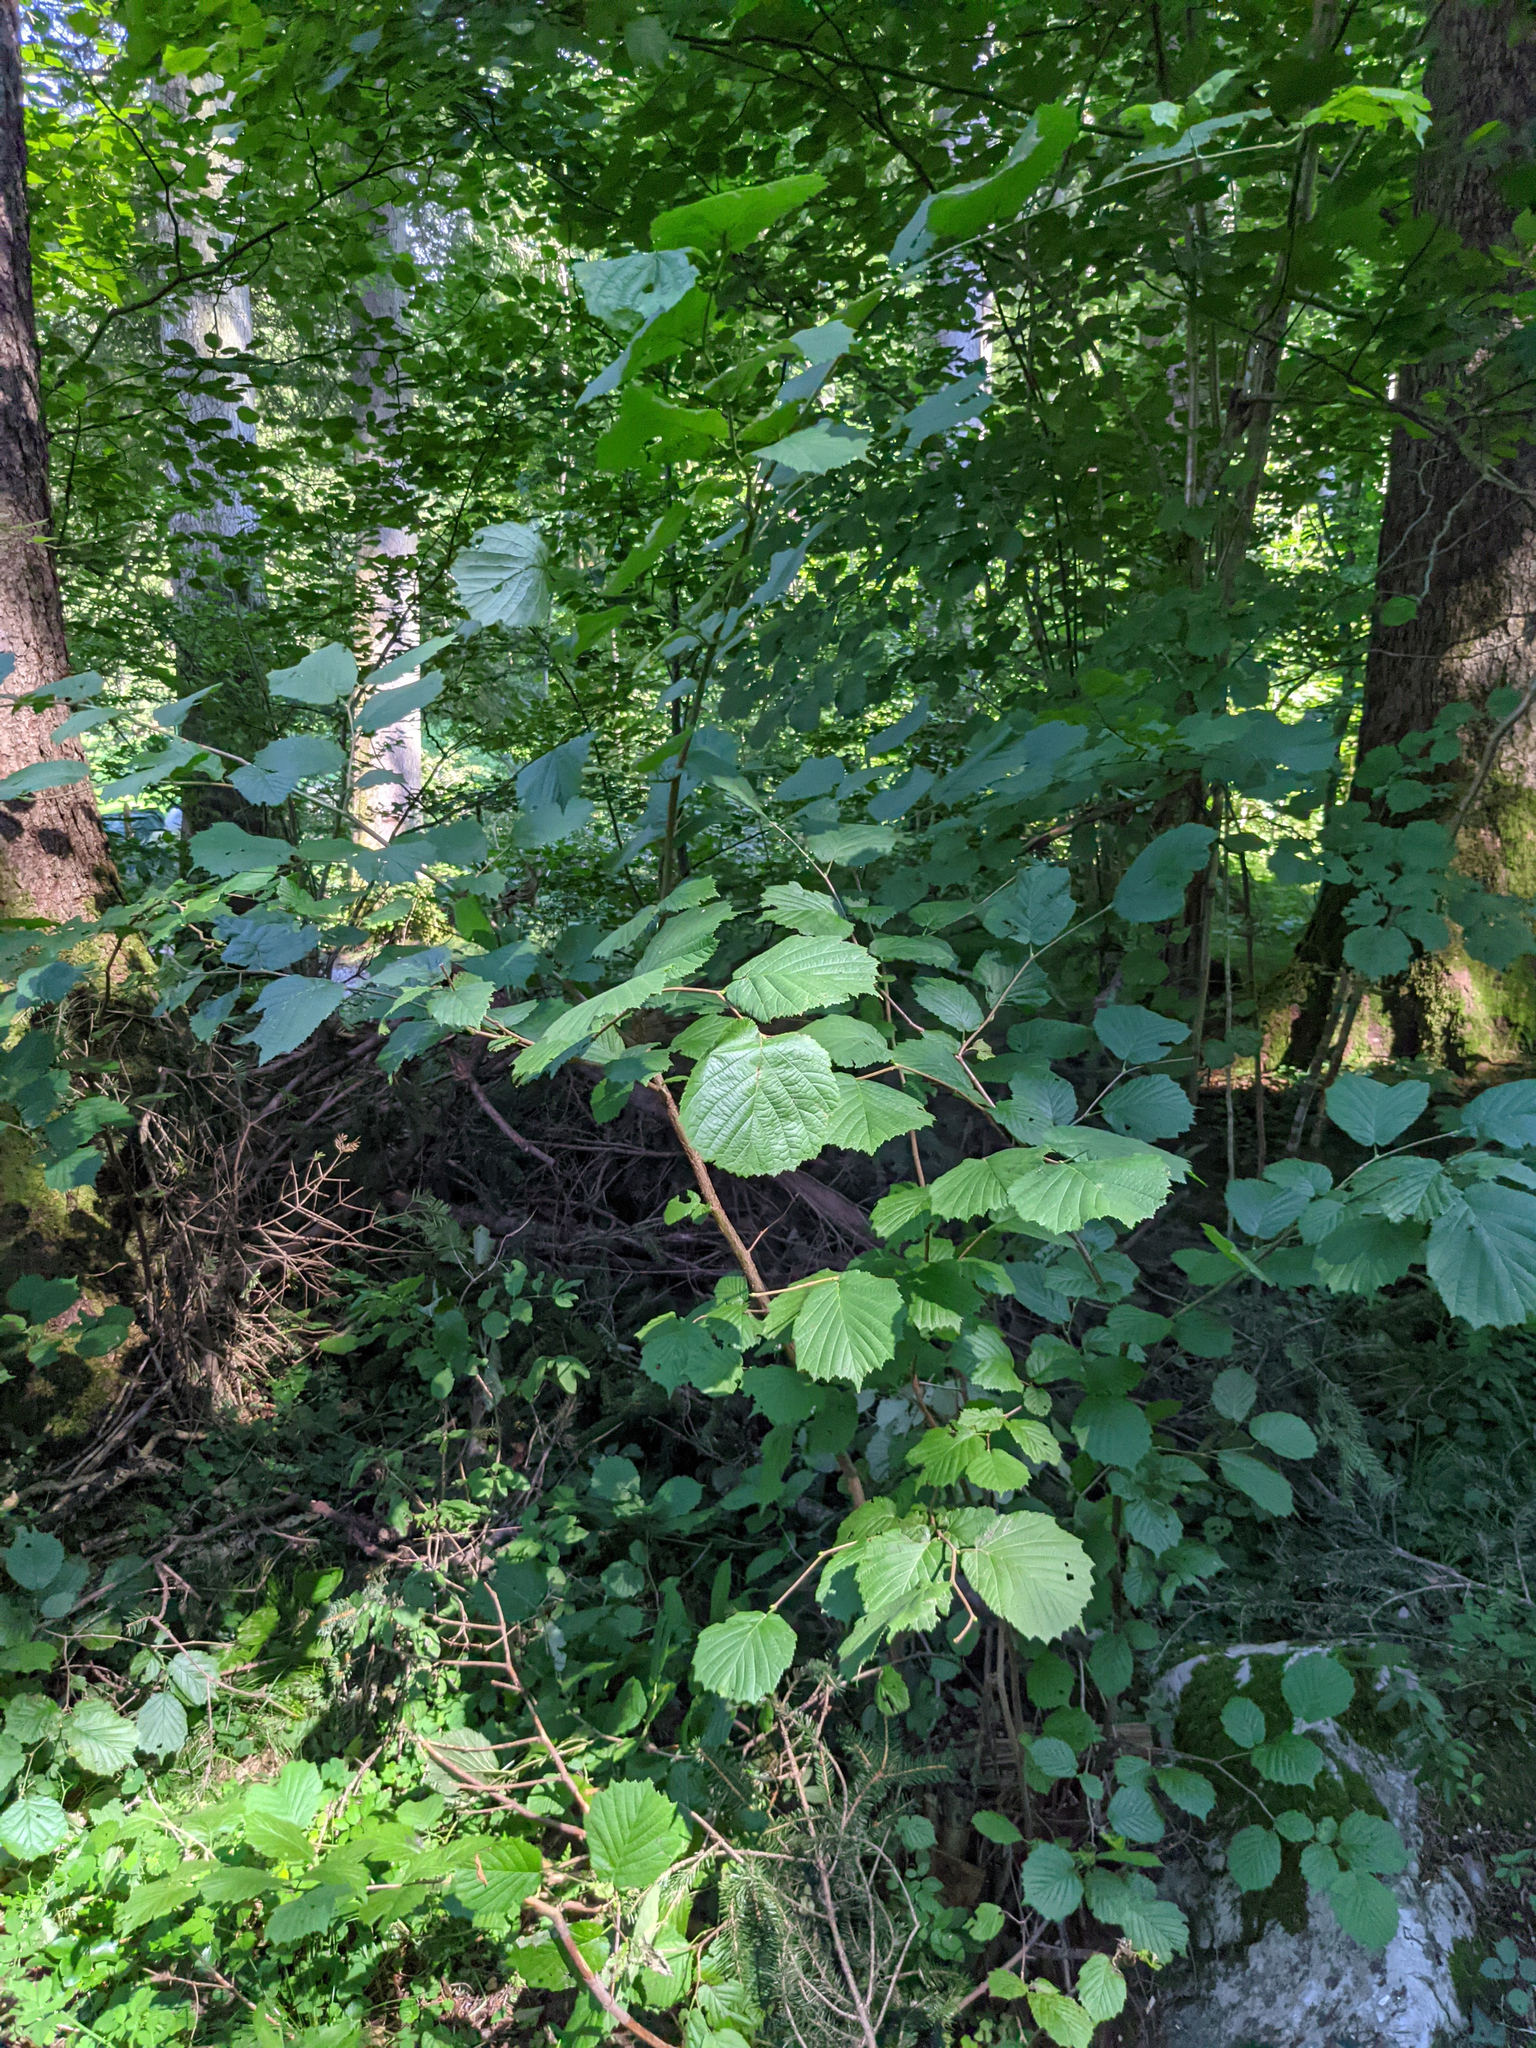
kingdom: Plantae
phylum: Tracheophyta
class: Magnoliopsida
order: Fagales
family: Betulaceae
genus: Corylus
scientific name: Corylus avellana
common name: European hazel
